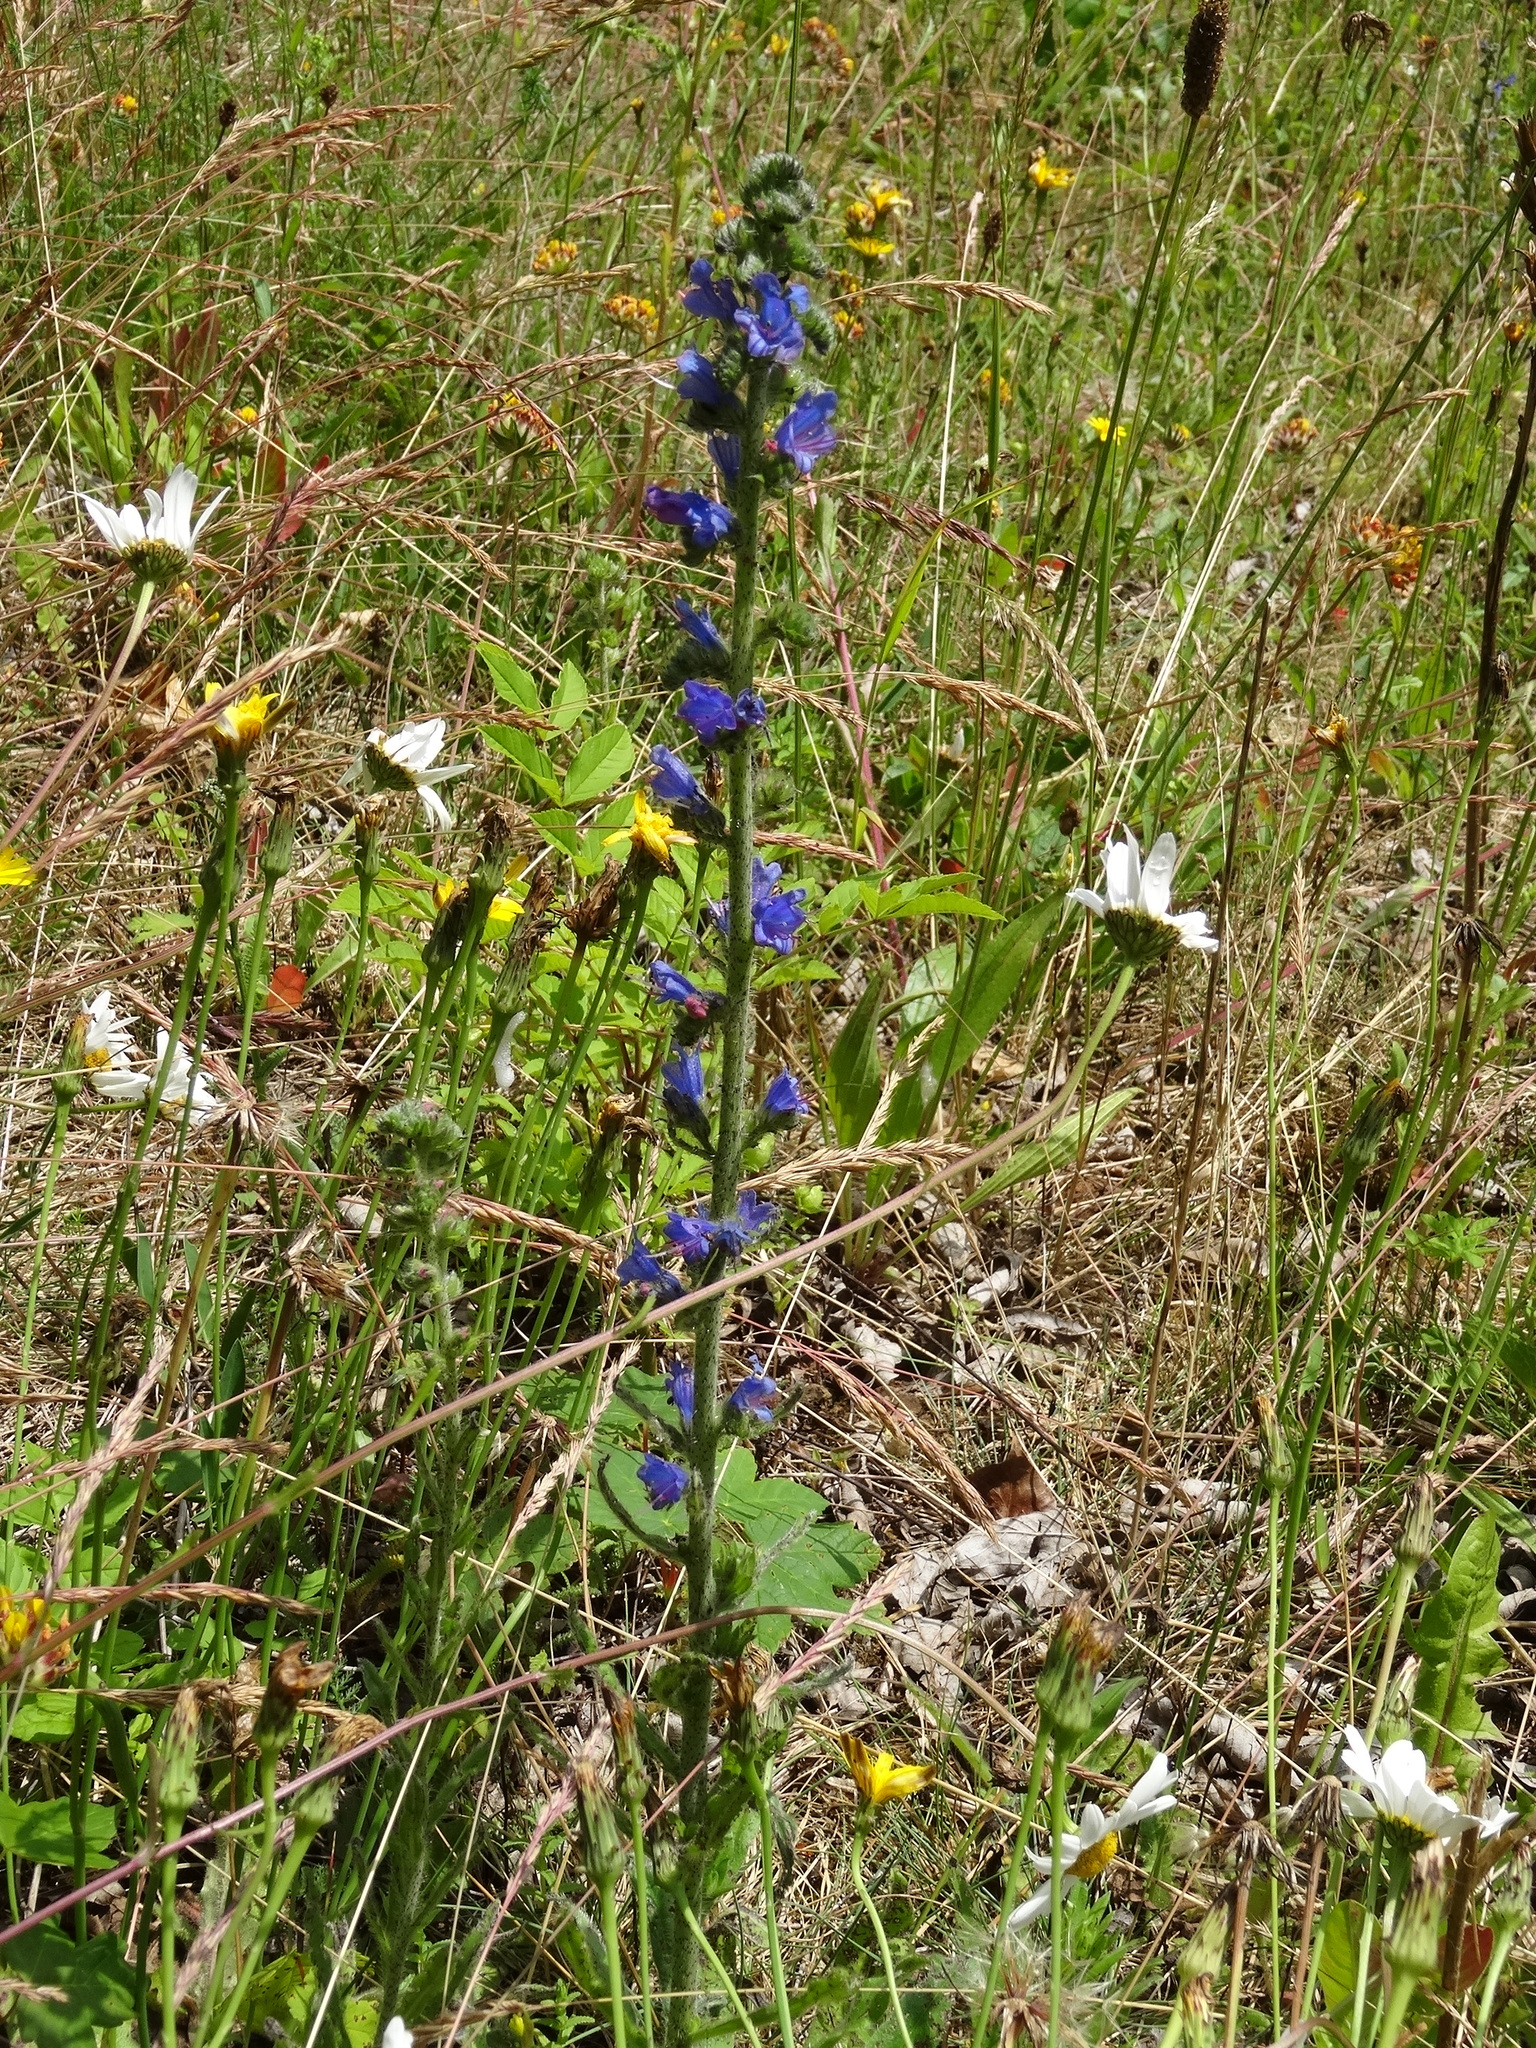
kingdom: Plantae
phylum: Tracheophyta
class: Magnoliopsida
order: Boraginales
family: Boraginaceae
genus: Echium
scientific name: Echium vulgare
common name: Common viper's bugloss
